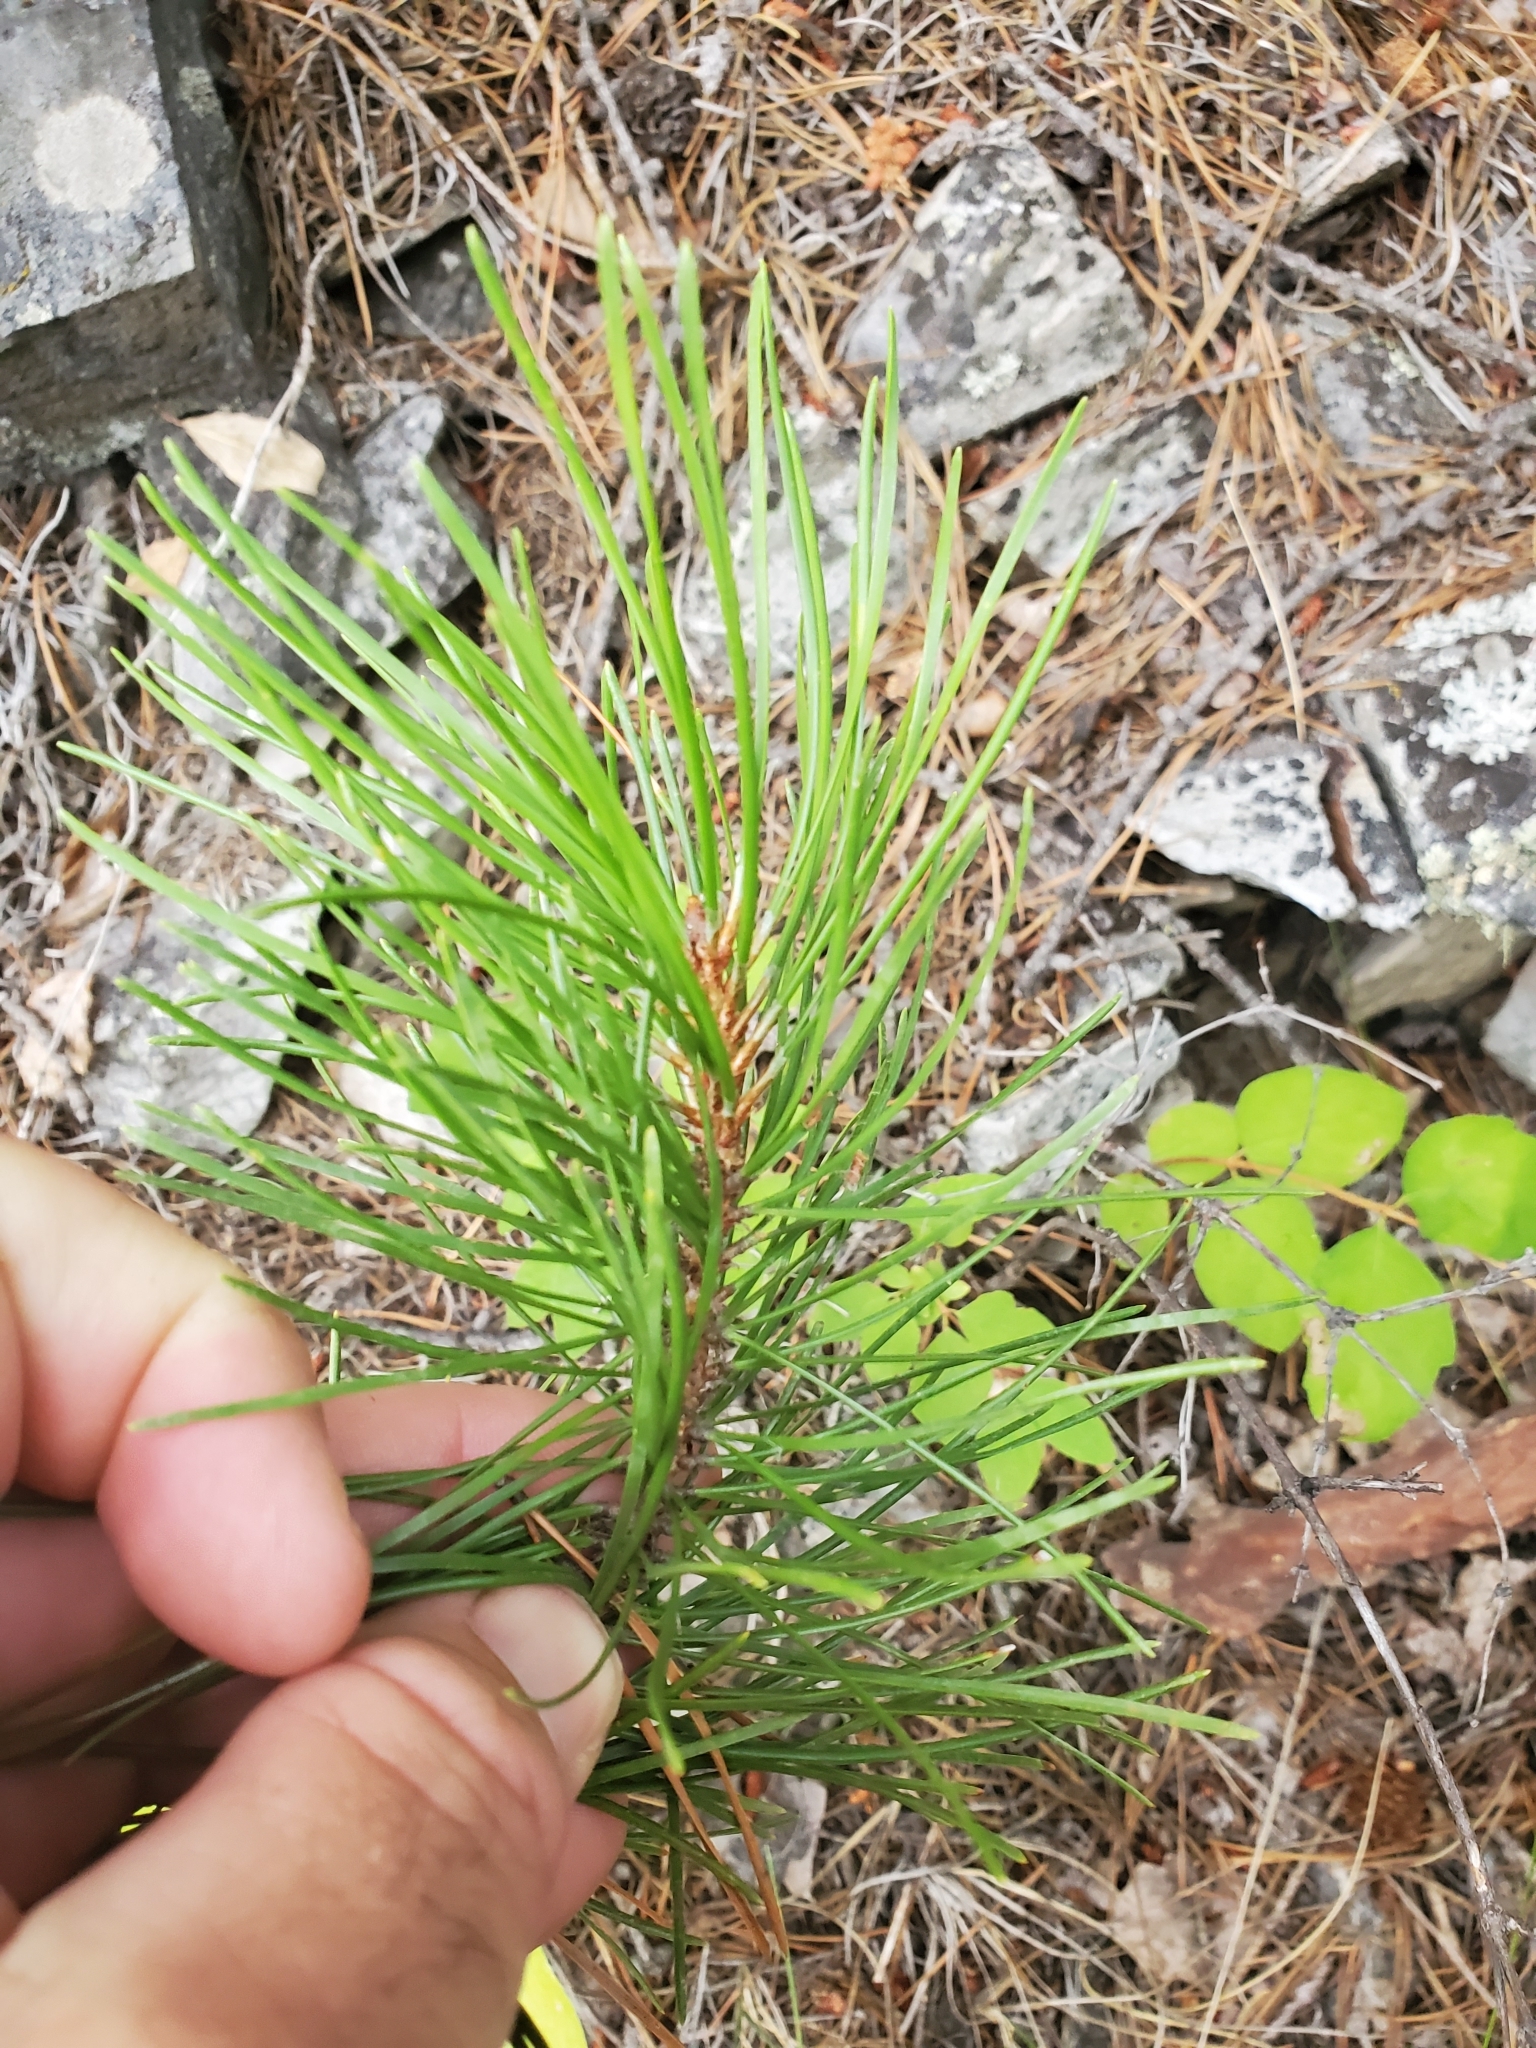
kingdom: Plantae
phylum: Tracheophyta
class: Pinopsida
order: Pinales
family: Pinaceae
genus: Pinus
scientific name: Pinus contorta
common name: Lodgepole pine
